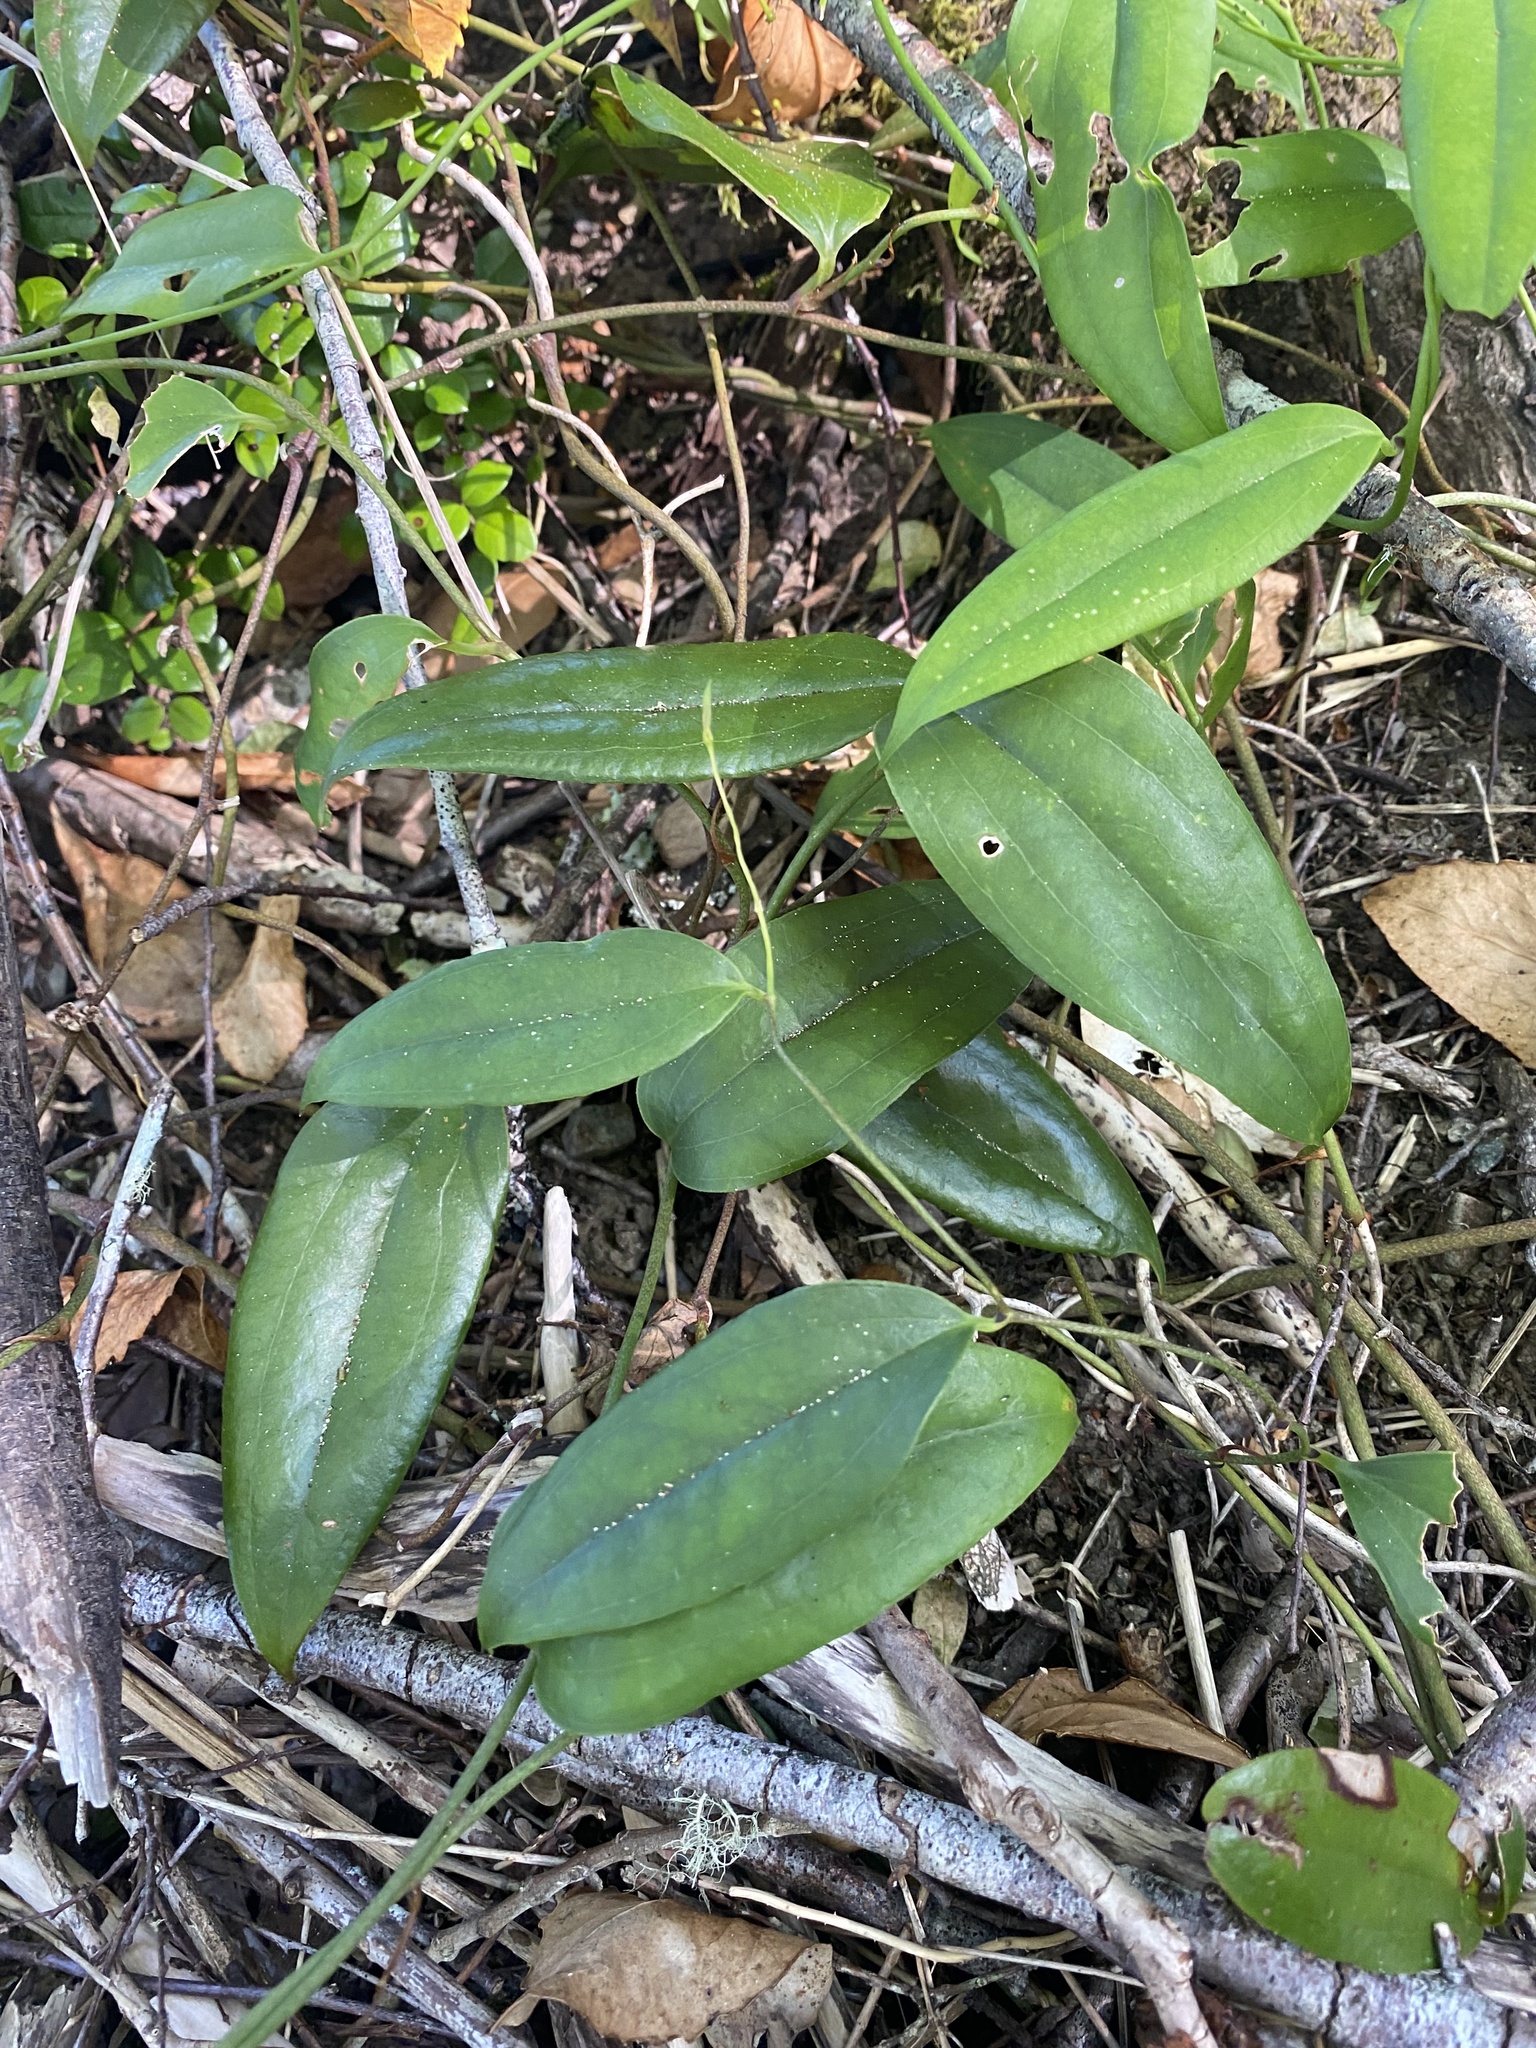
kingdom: Plantae
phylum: Tracheophyta
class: Liliopsida
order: Liliales
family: Philesiaceae
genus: Lapageria
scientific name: Lapageria rosea
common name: Chilean-bellflower
